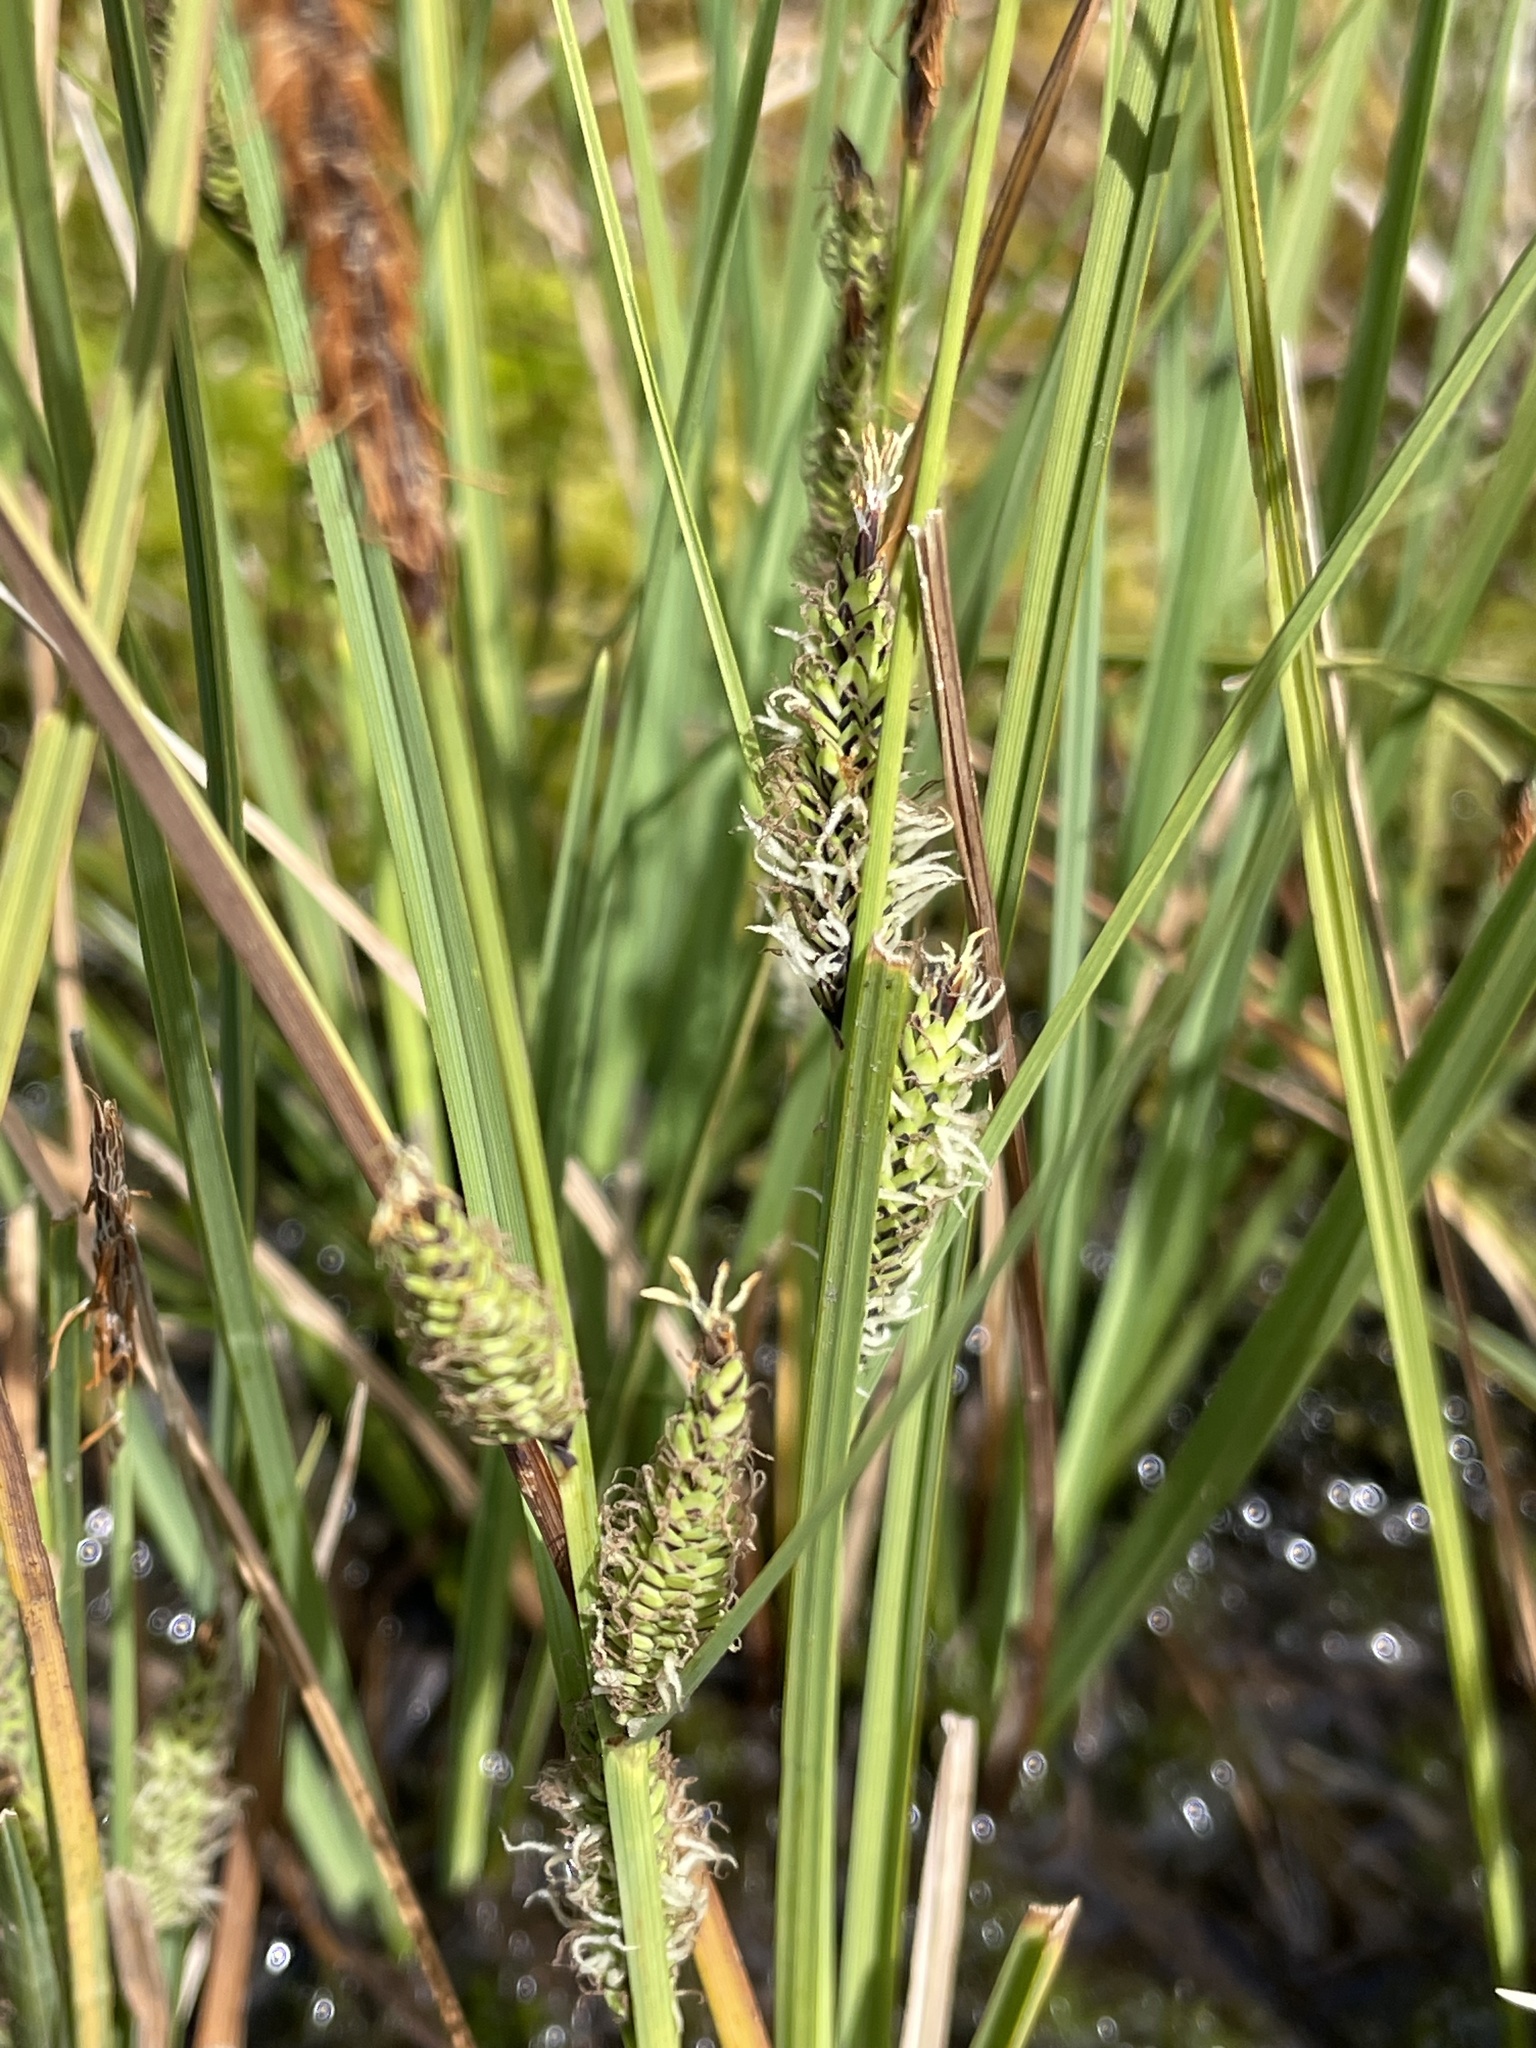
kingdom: Plantae
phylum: Tracheophyta
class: Liliopsida
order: Poales
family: Cyperaceae
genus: Carex
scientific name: Carex gaudichaudiana
